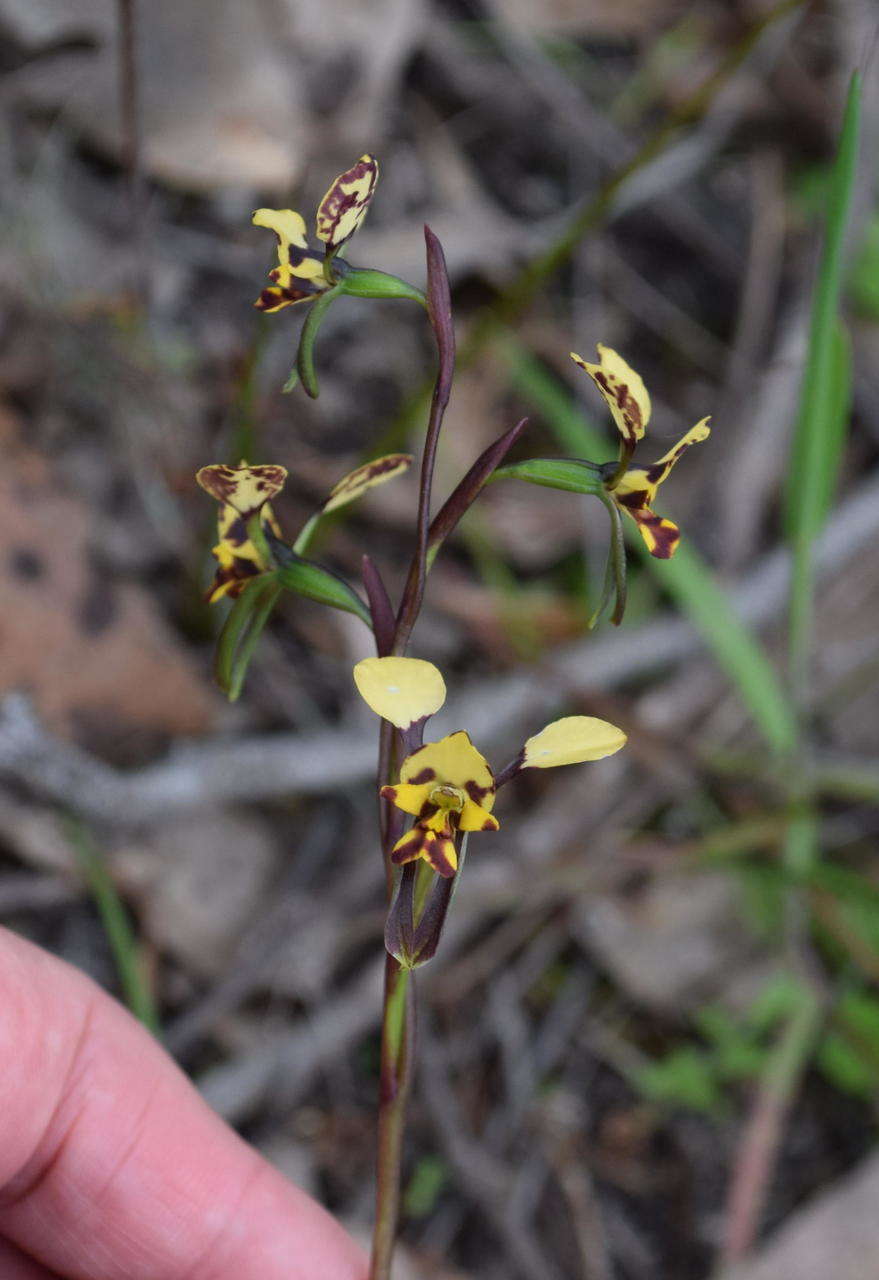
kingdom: Plantae
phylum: Tracheophyta
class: Liliopsida
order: Asparagales
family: Orchidaceae
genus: Diuris
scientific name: Diuris pardina
